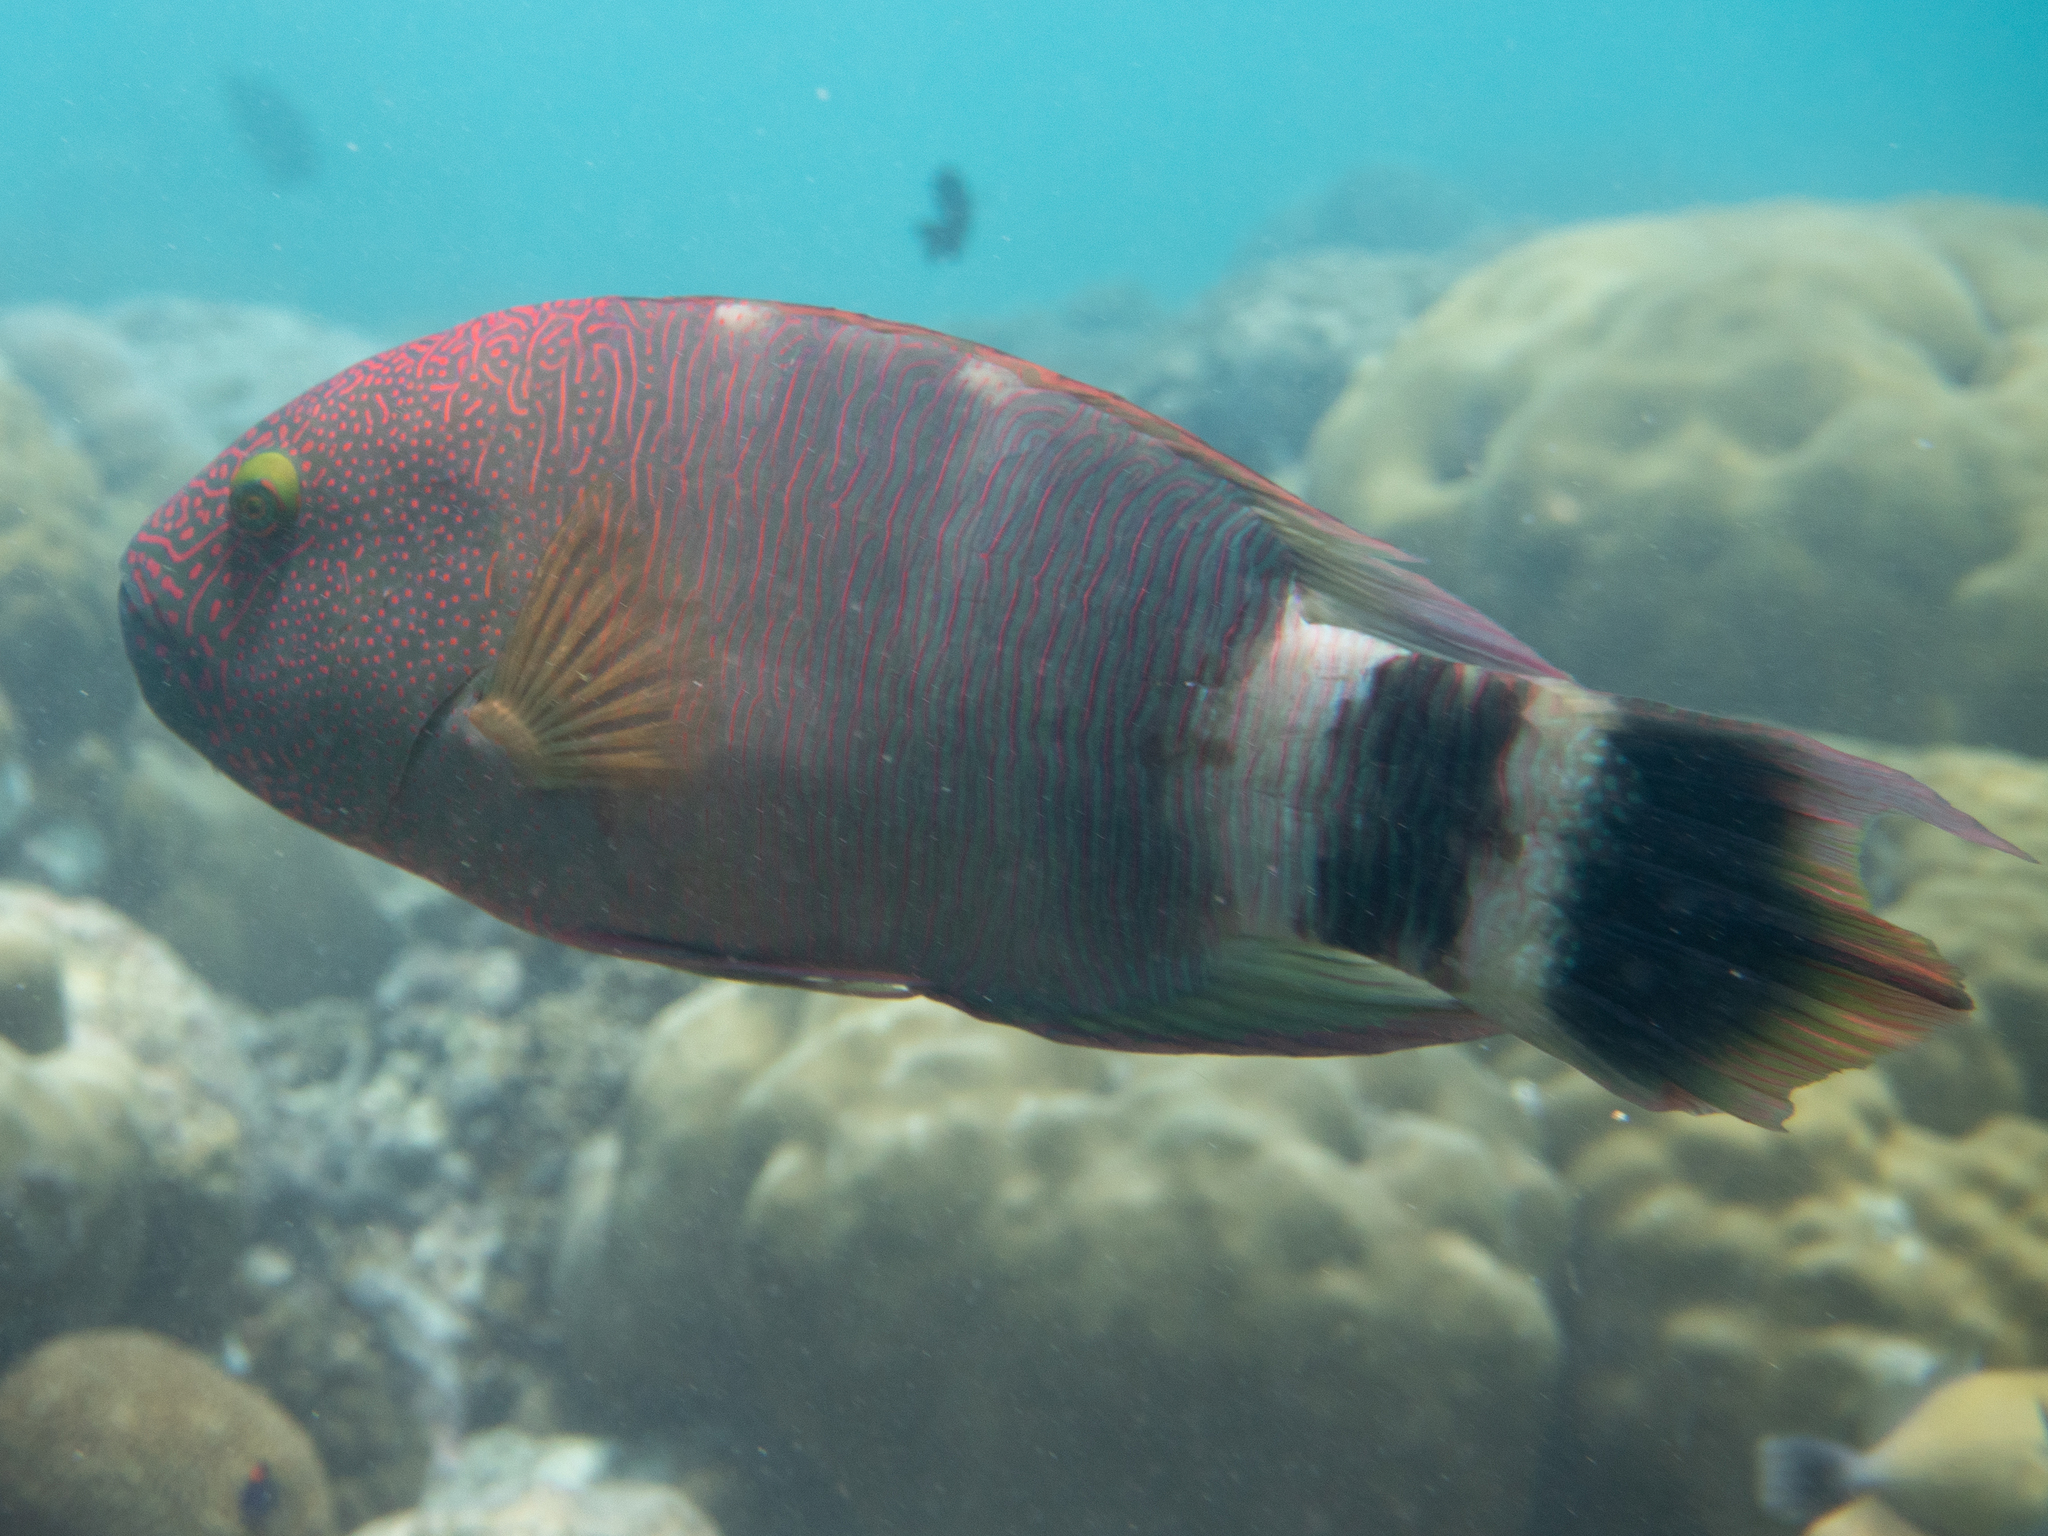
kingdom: Animalia
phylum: Chordata
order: Perciformes
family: Labridae
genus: Cheilinus
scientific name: Cheilinus trilobatus
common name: Tripletail maori wrasse
